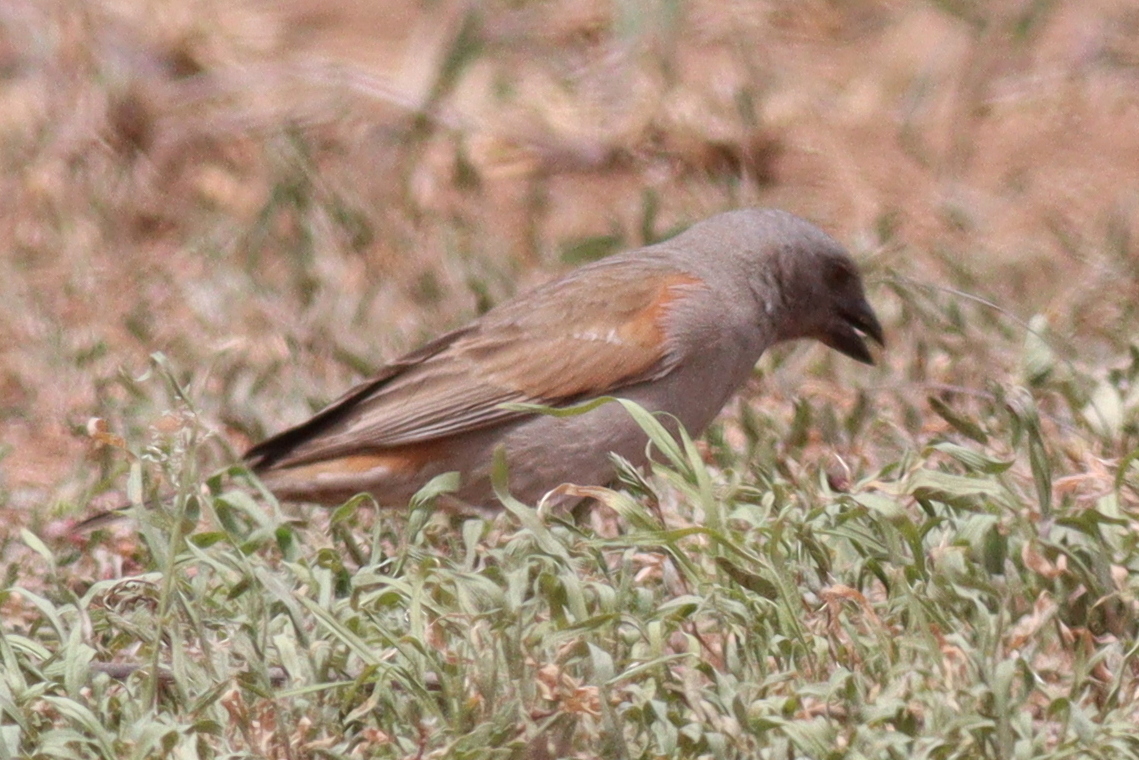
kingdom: Animalia
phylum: Chordata
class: Aves
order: Passeriformes
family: Passeridae
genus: Passer
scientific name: Passer gongonensis
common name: Parrot-billed sparrow
